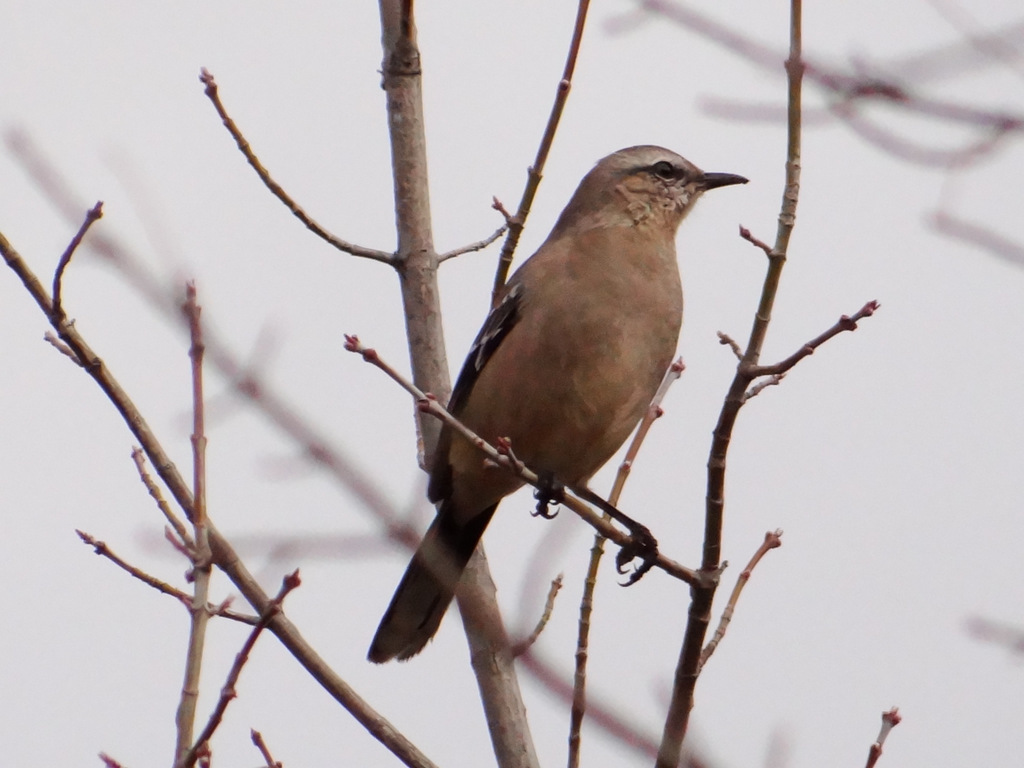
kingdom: Animalia
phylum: Chordata
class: Aves
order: Passeriformes
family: Mimidae
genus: Mimus
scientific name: Mimus patagonicus
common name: Patagonian mockingbird
